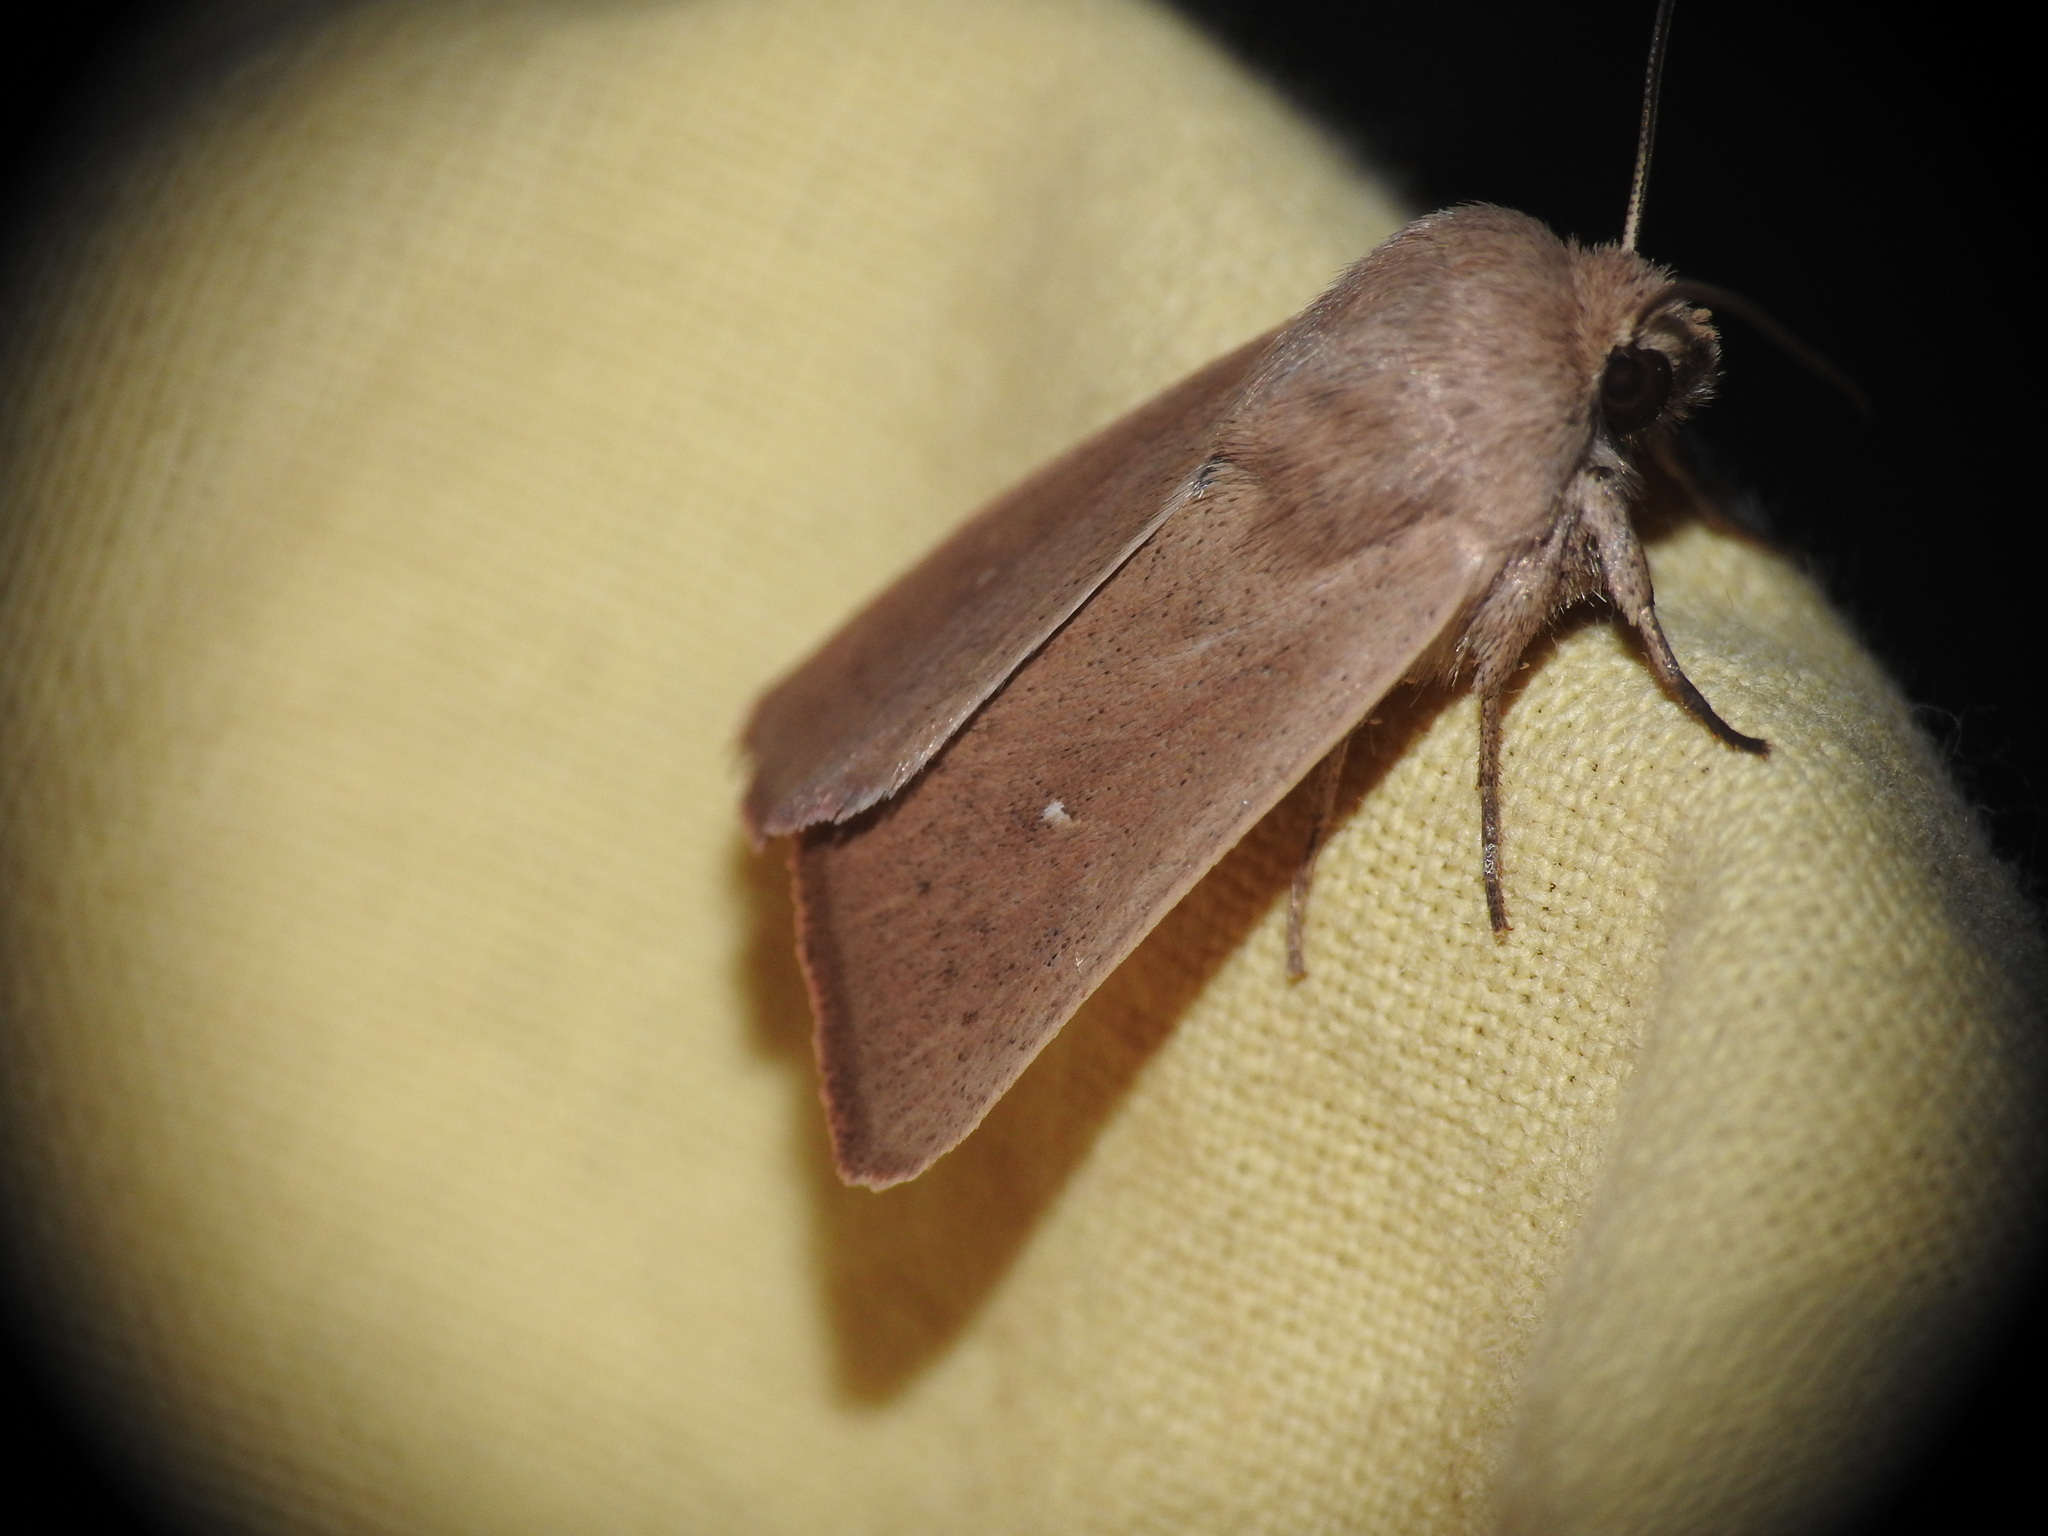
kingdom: Animalia
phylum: Arthropoda
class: Insecta
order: Lepidoptera
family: Noctuidae
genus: Mythimna
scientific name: Mythimna sicula
